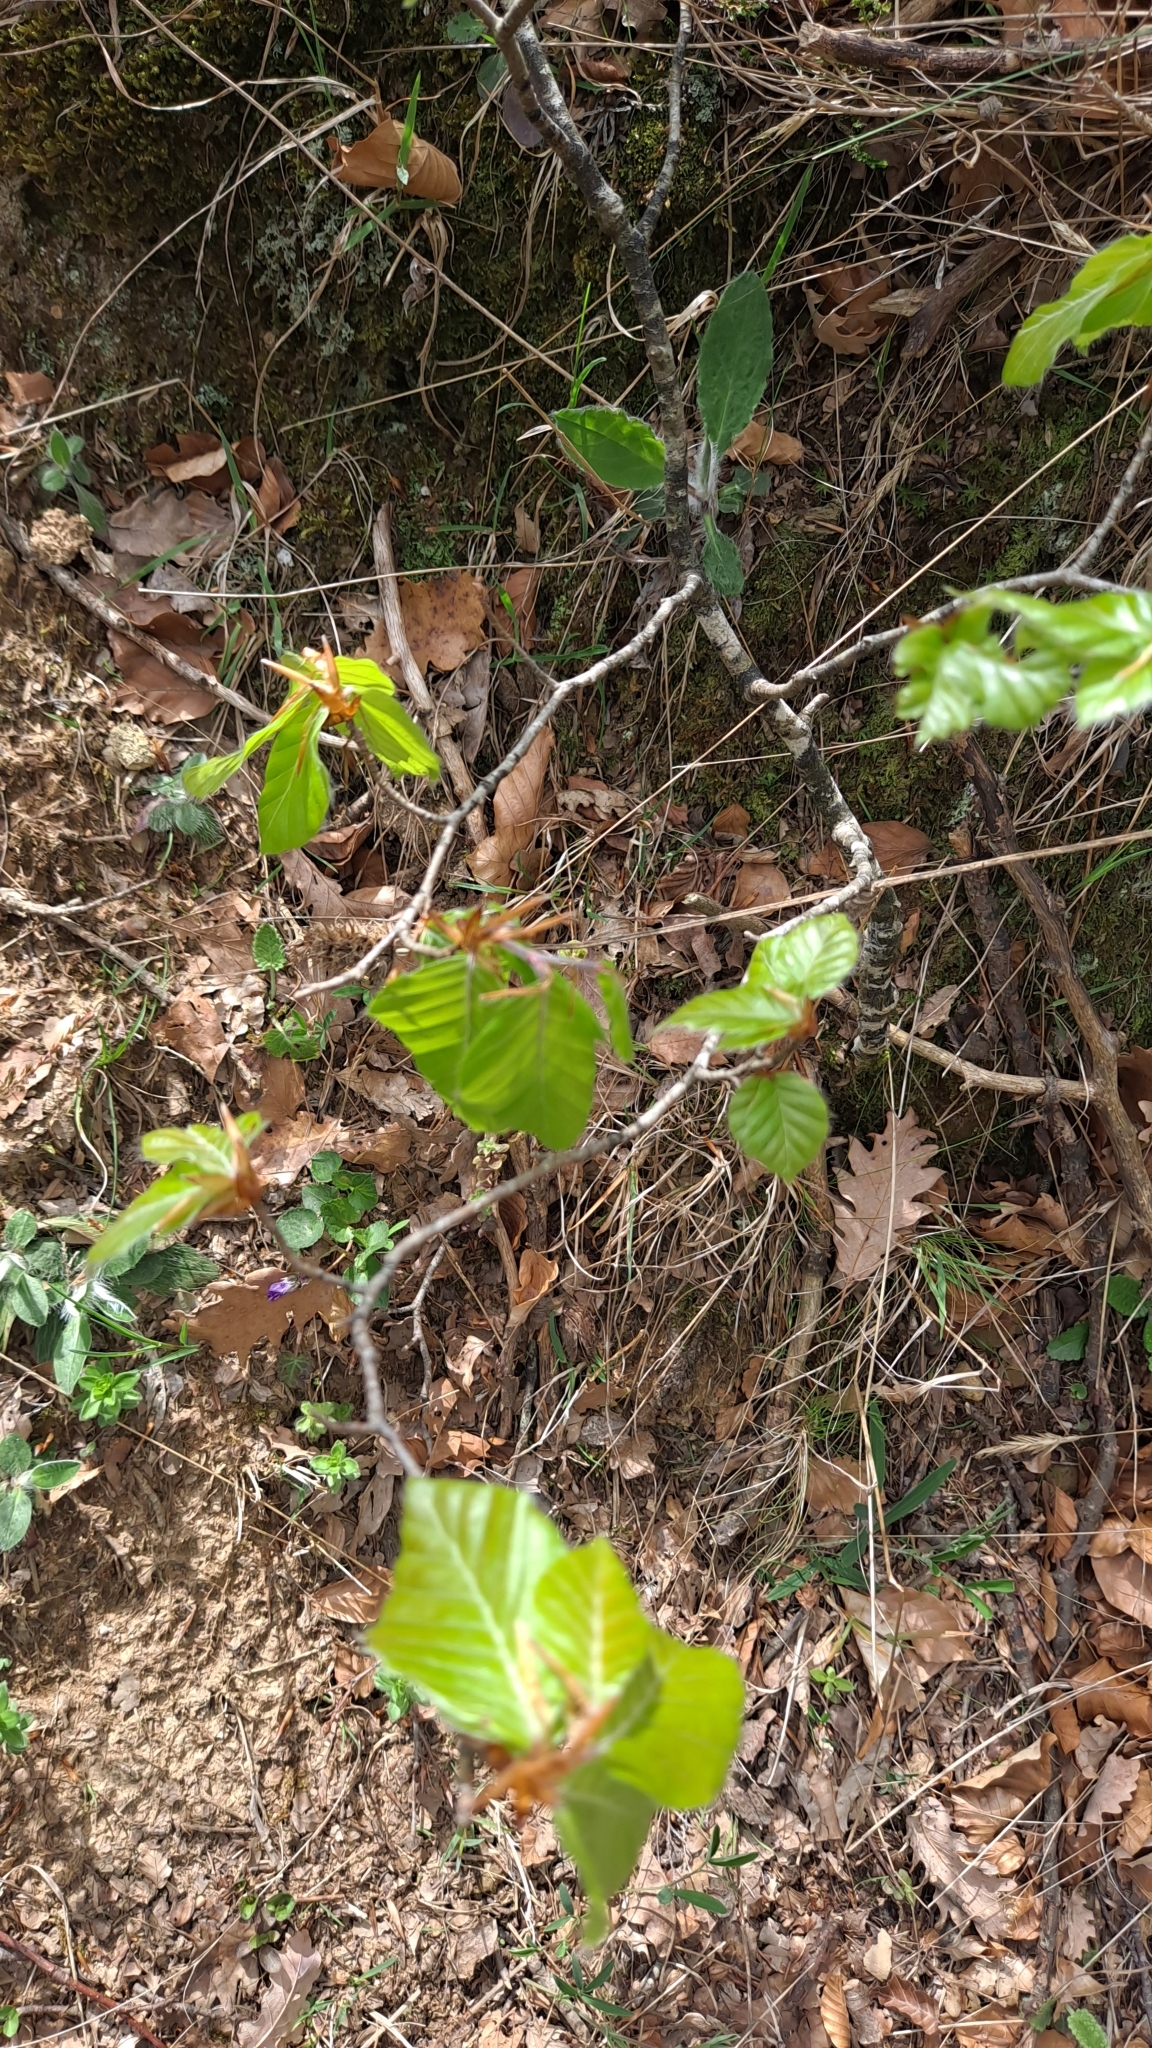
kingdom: Plantae
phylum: Tracheophyta
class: Magnoliopsida
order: Fagales
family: Fagaceae
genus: Fagus
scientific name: Fagus sylvatica
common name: Beech
